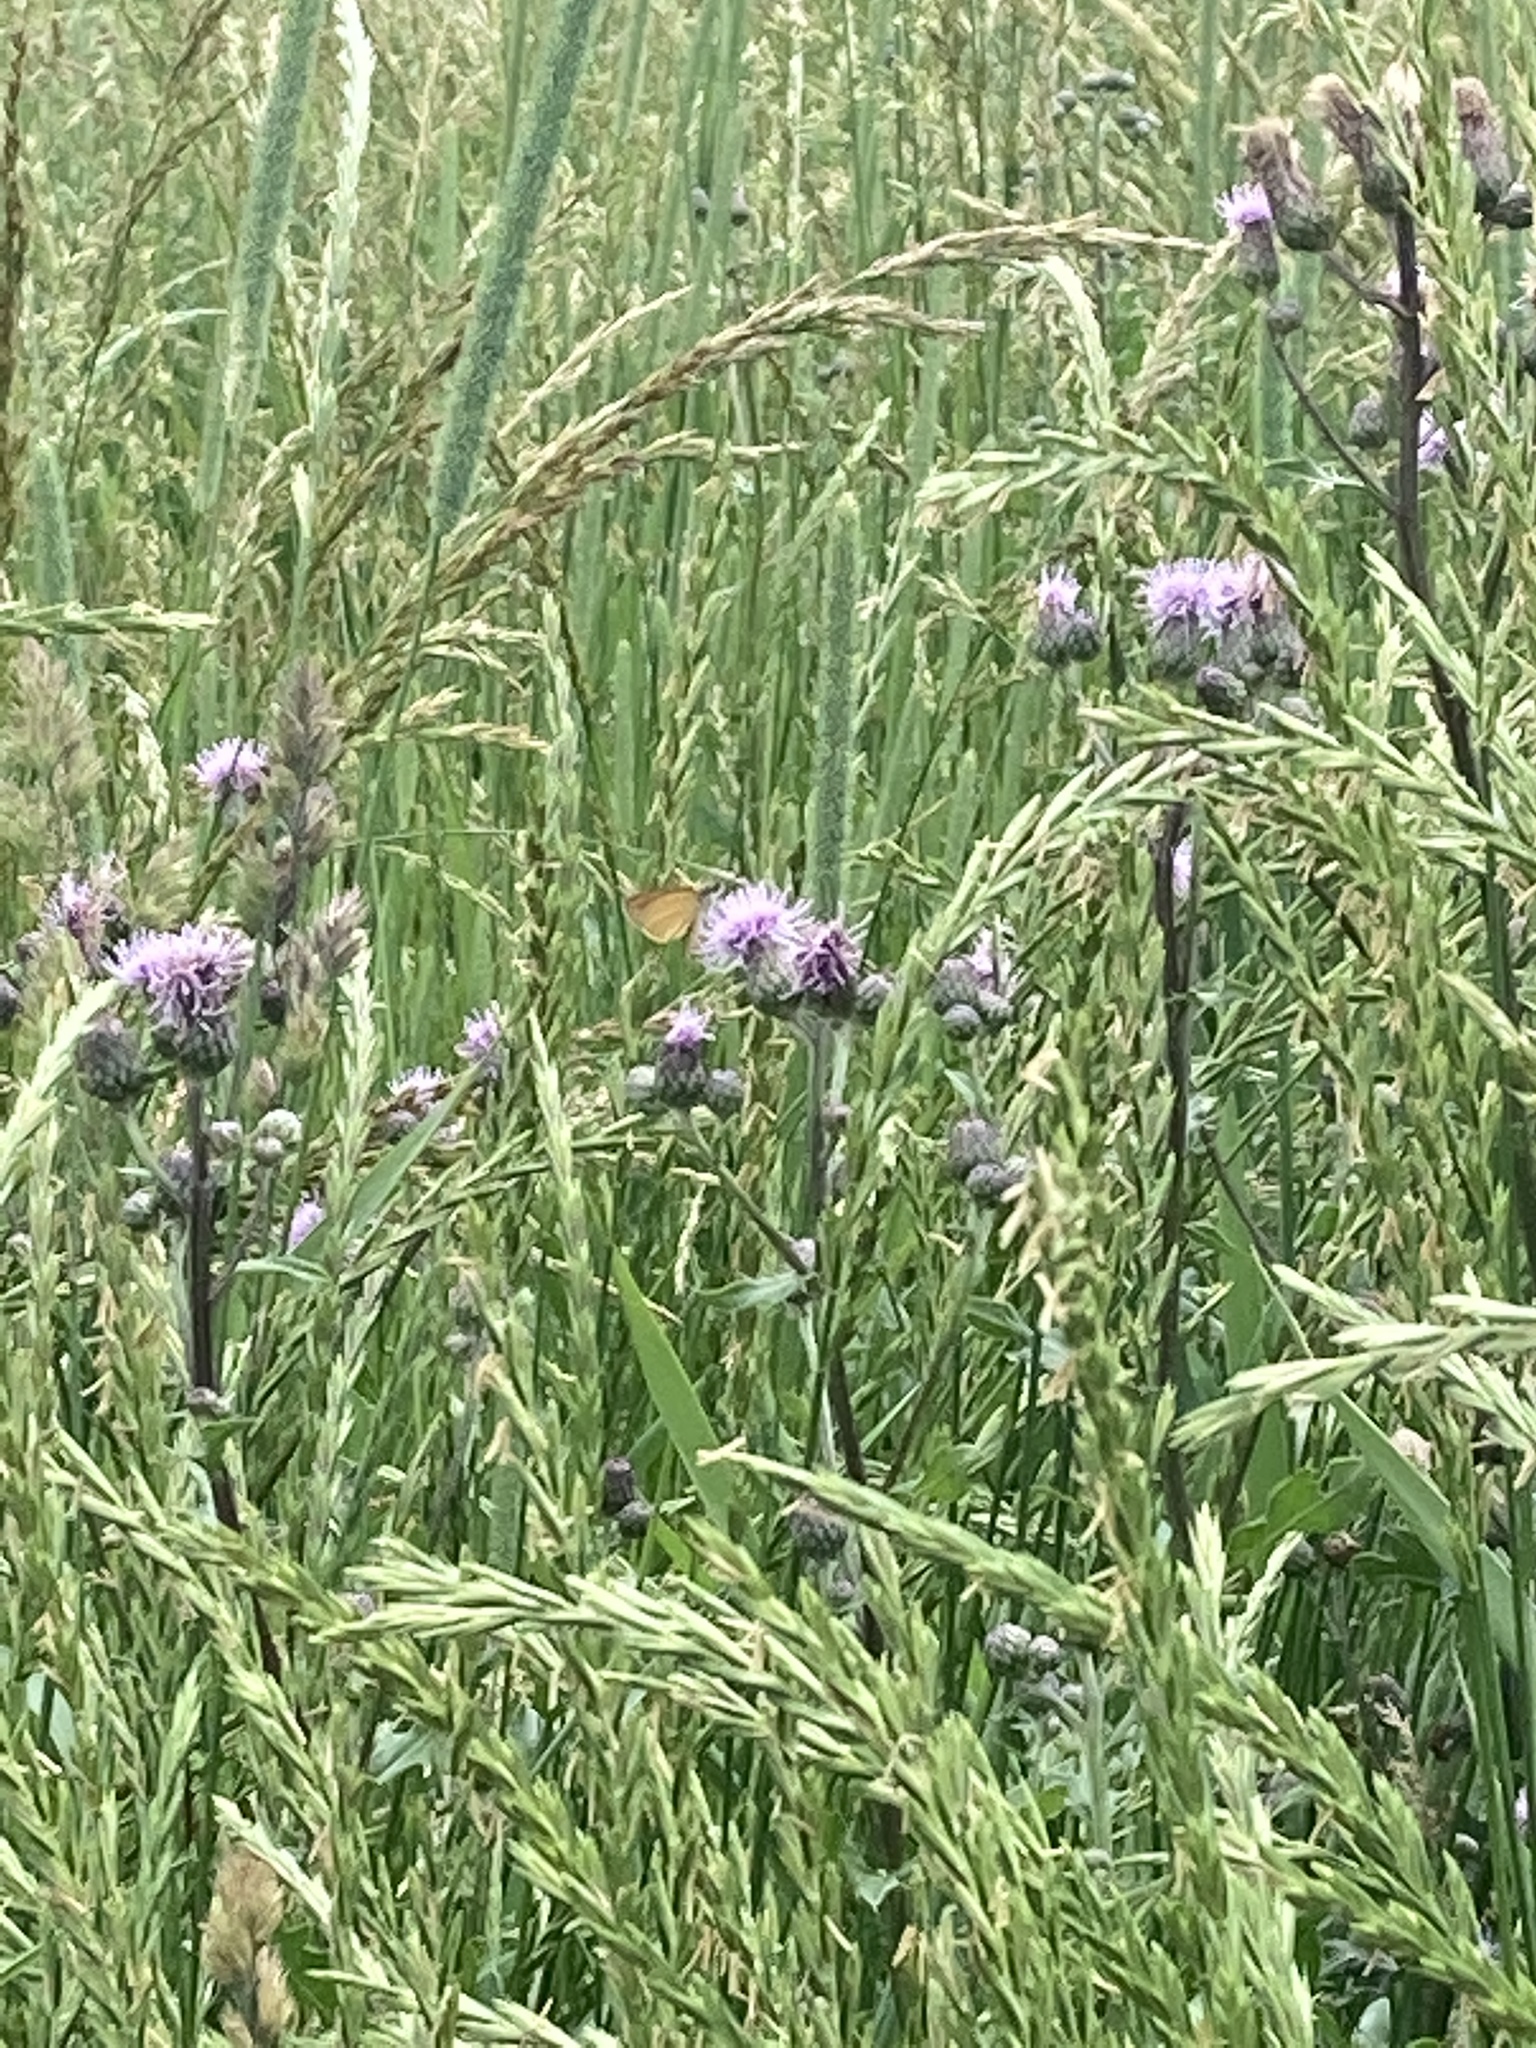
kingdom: Animalia
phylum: Arthropoda
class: Insecta
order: Lepidoptera
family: Hesperiidae
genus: Ancyloxypha
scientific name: Ancyloxypha numitor
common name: Least skipper
